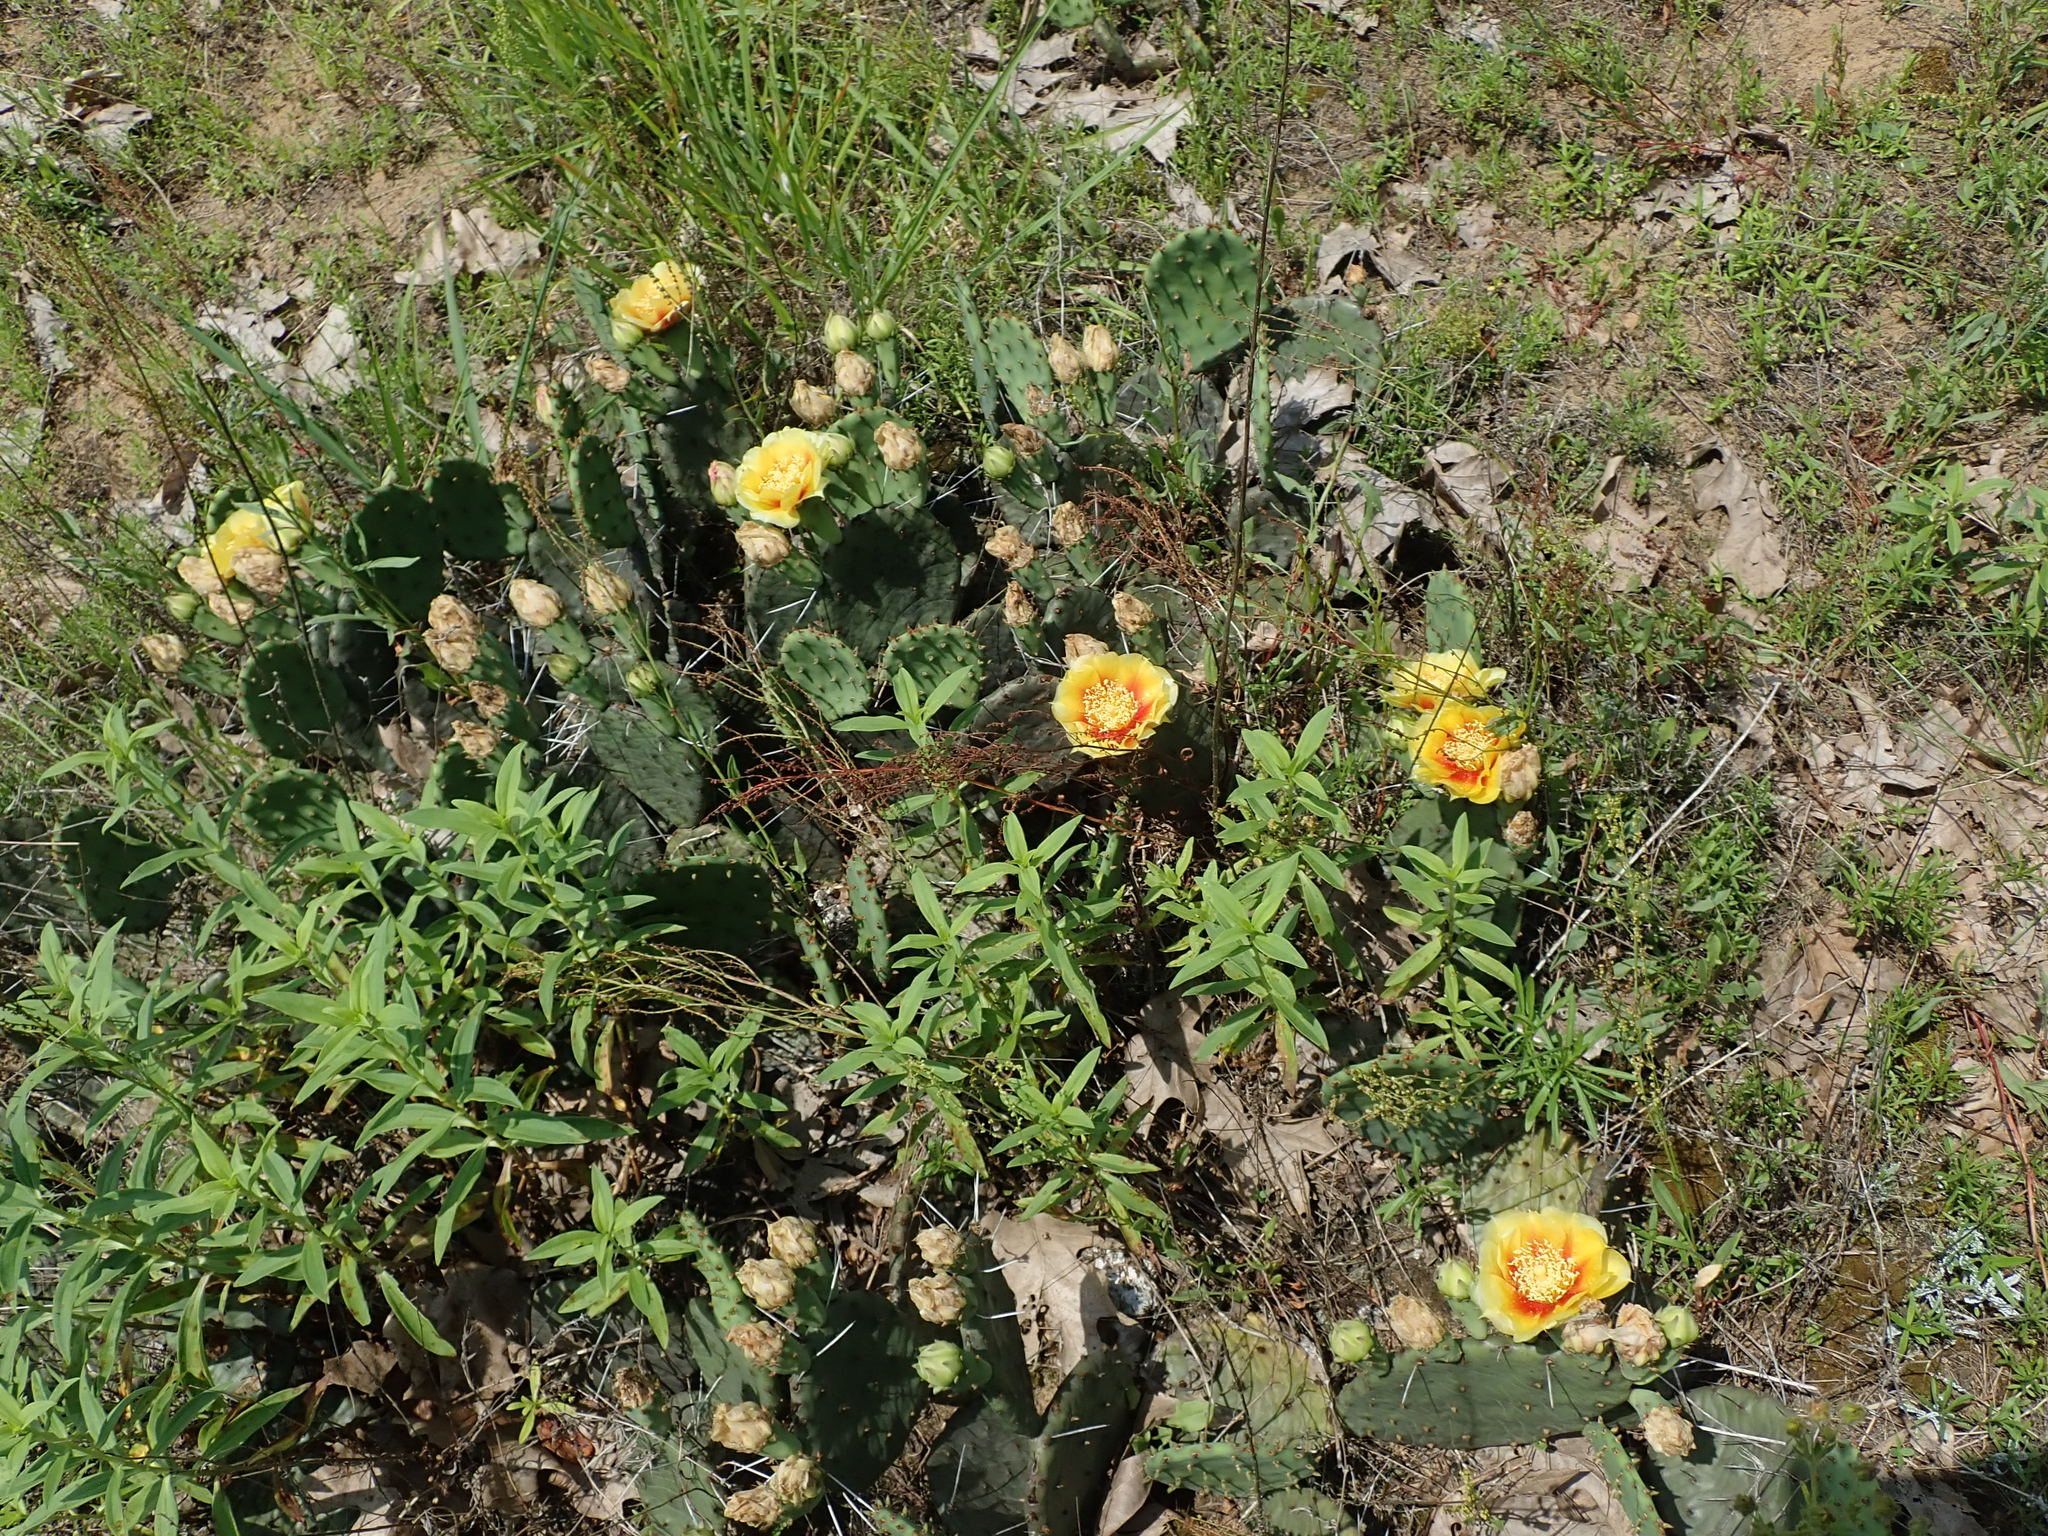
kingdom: Plantae
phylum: Tracheophyta
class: Magnoliopsida
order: Caryophyllales
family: Cactaceae
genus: Opuntia
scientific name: Opuntia humifusa
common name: Eastern prickly-pear
